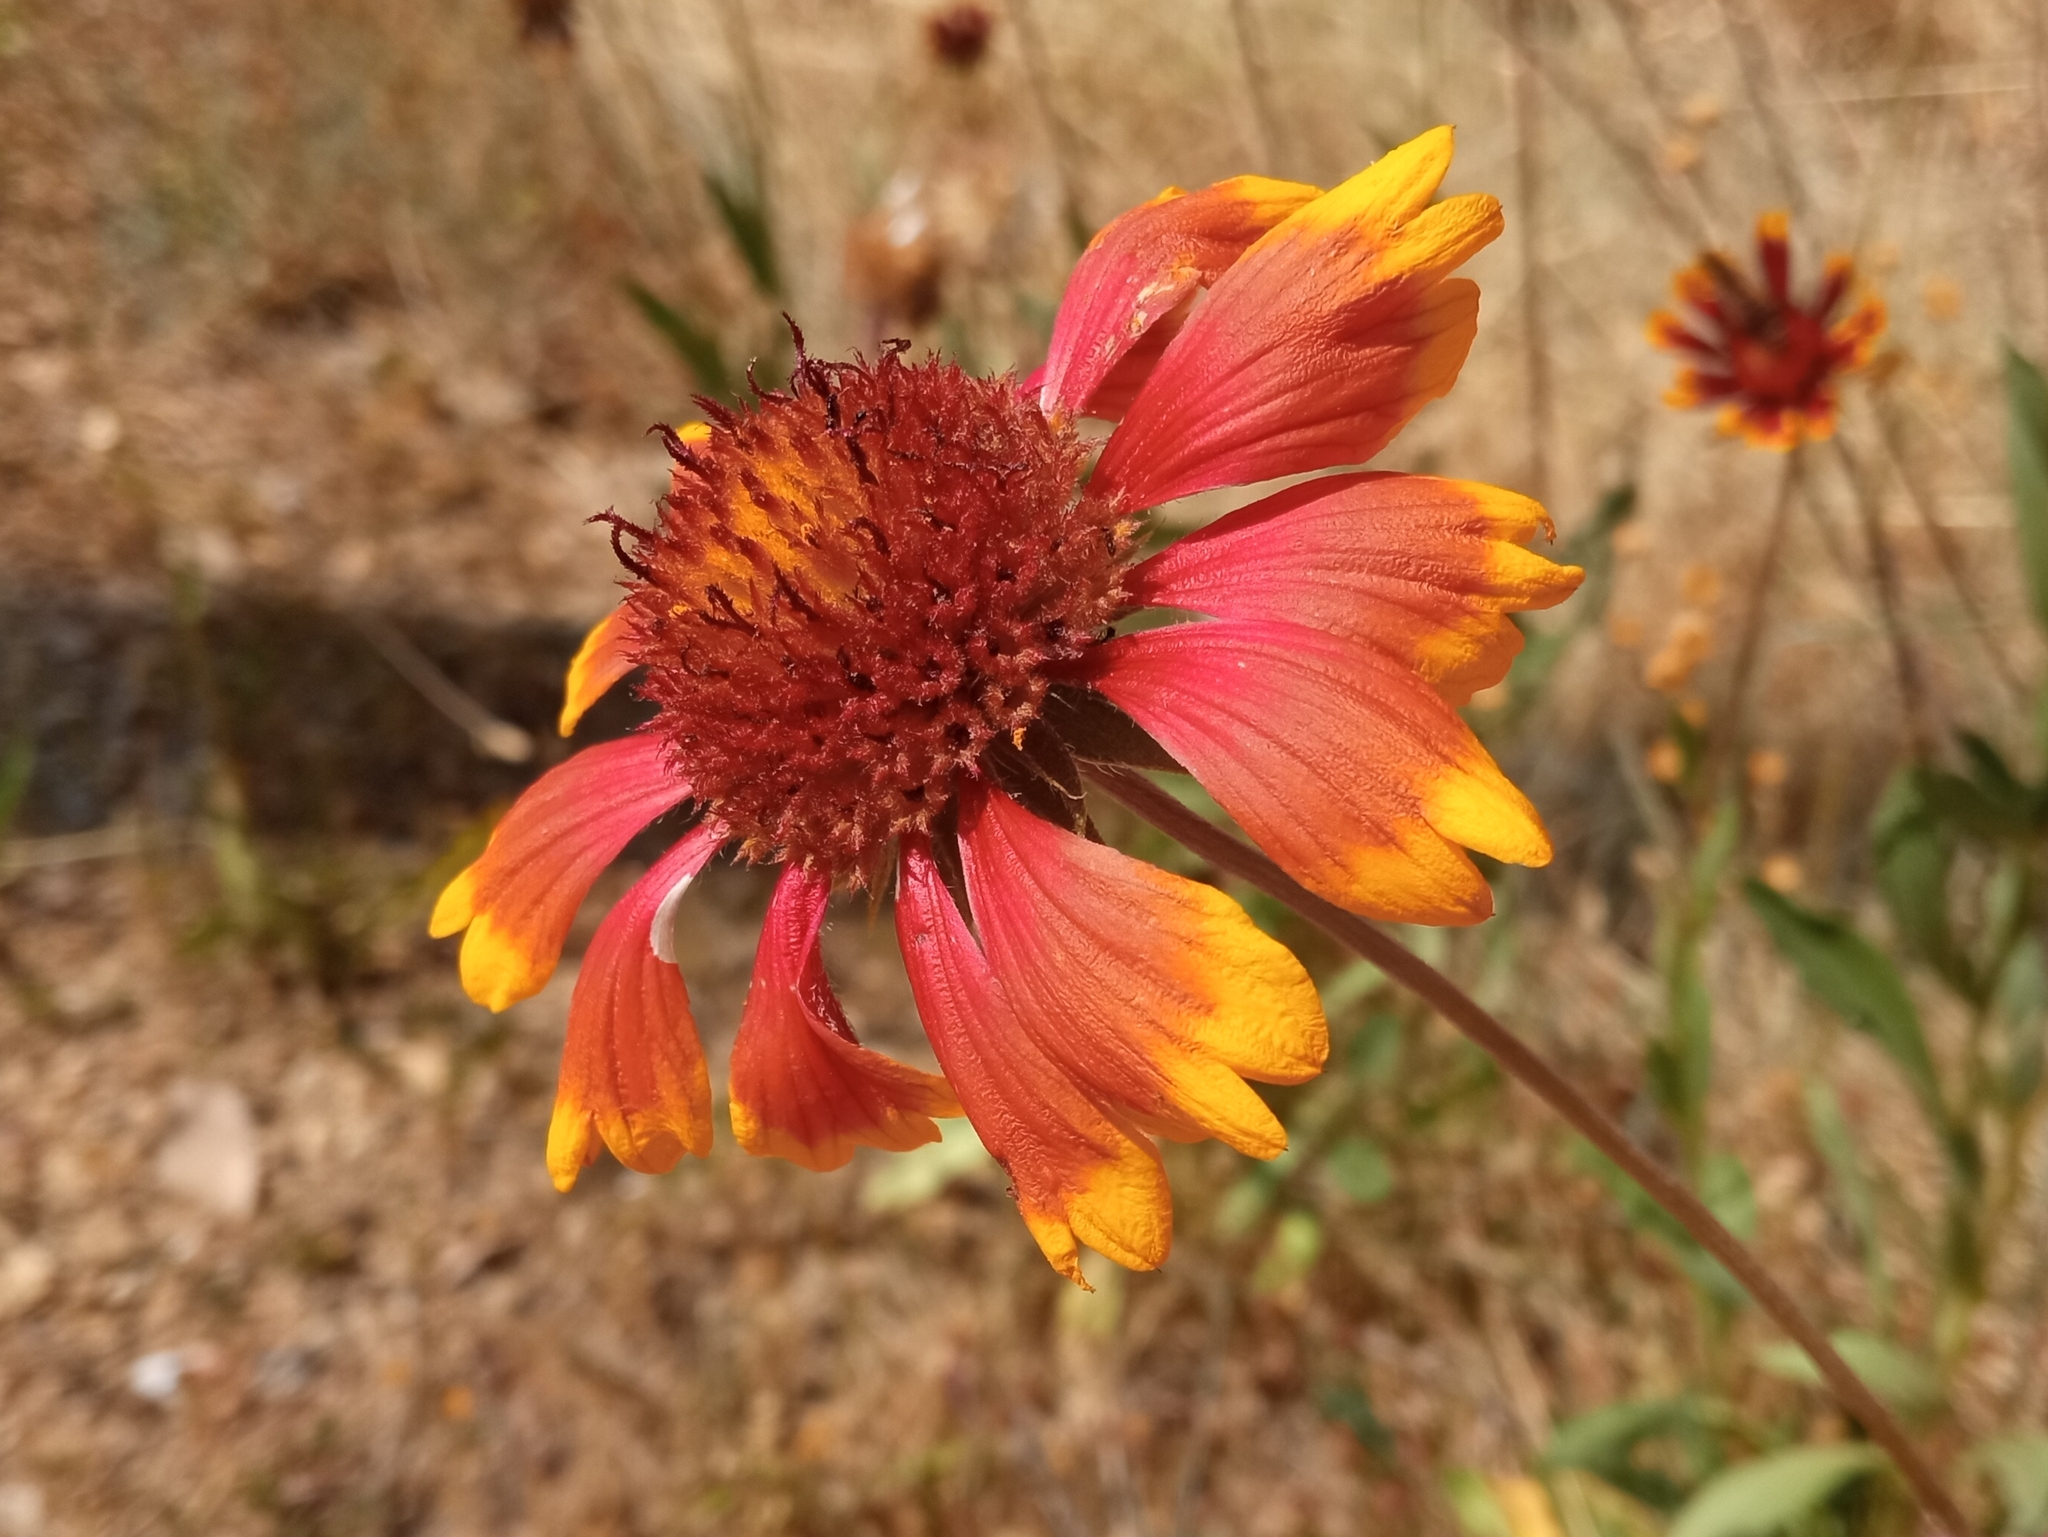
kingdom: Plantae
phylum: Tracheophyta
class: Magnoliopsida
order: Asterales
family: Asteraceae
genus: Gaillardia
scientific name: Gaillardia grandiflora
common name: Blanket flower
